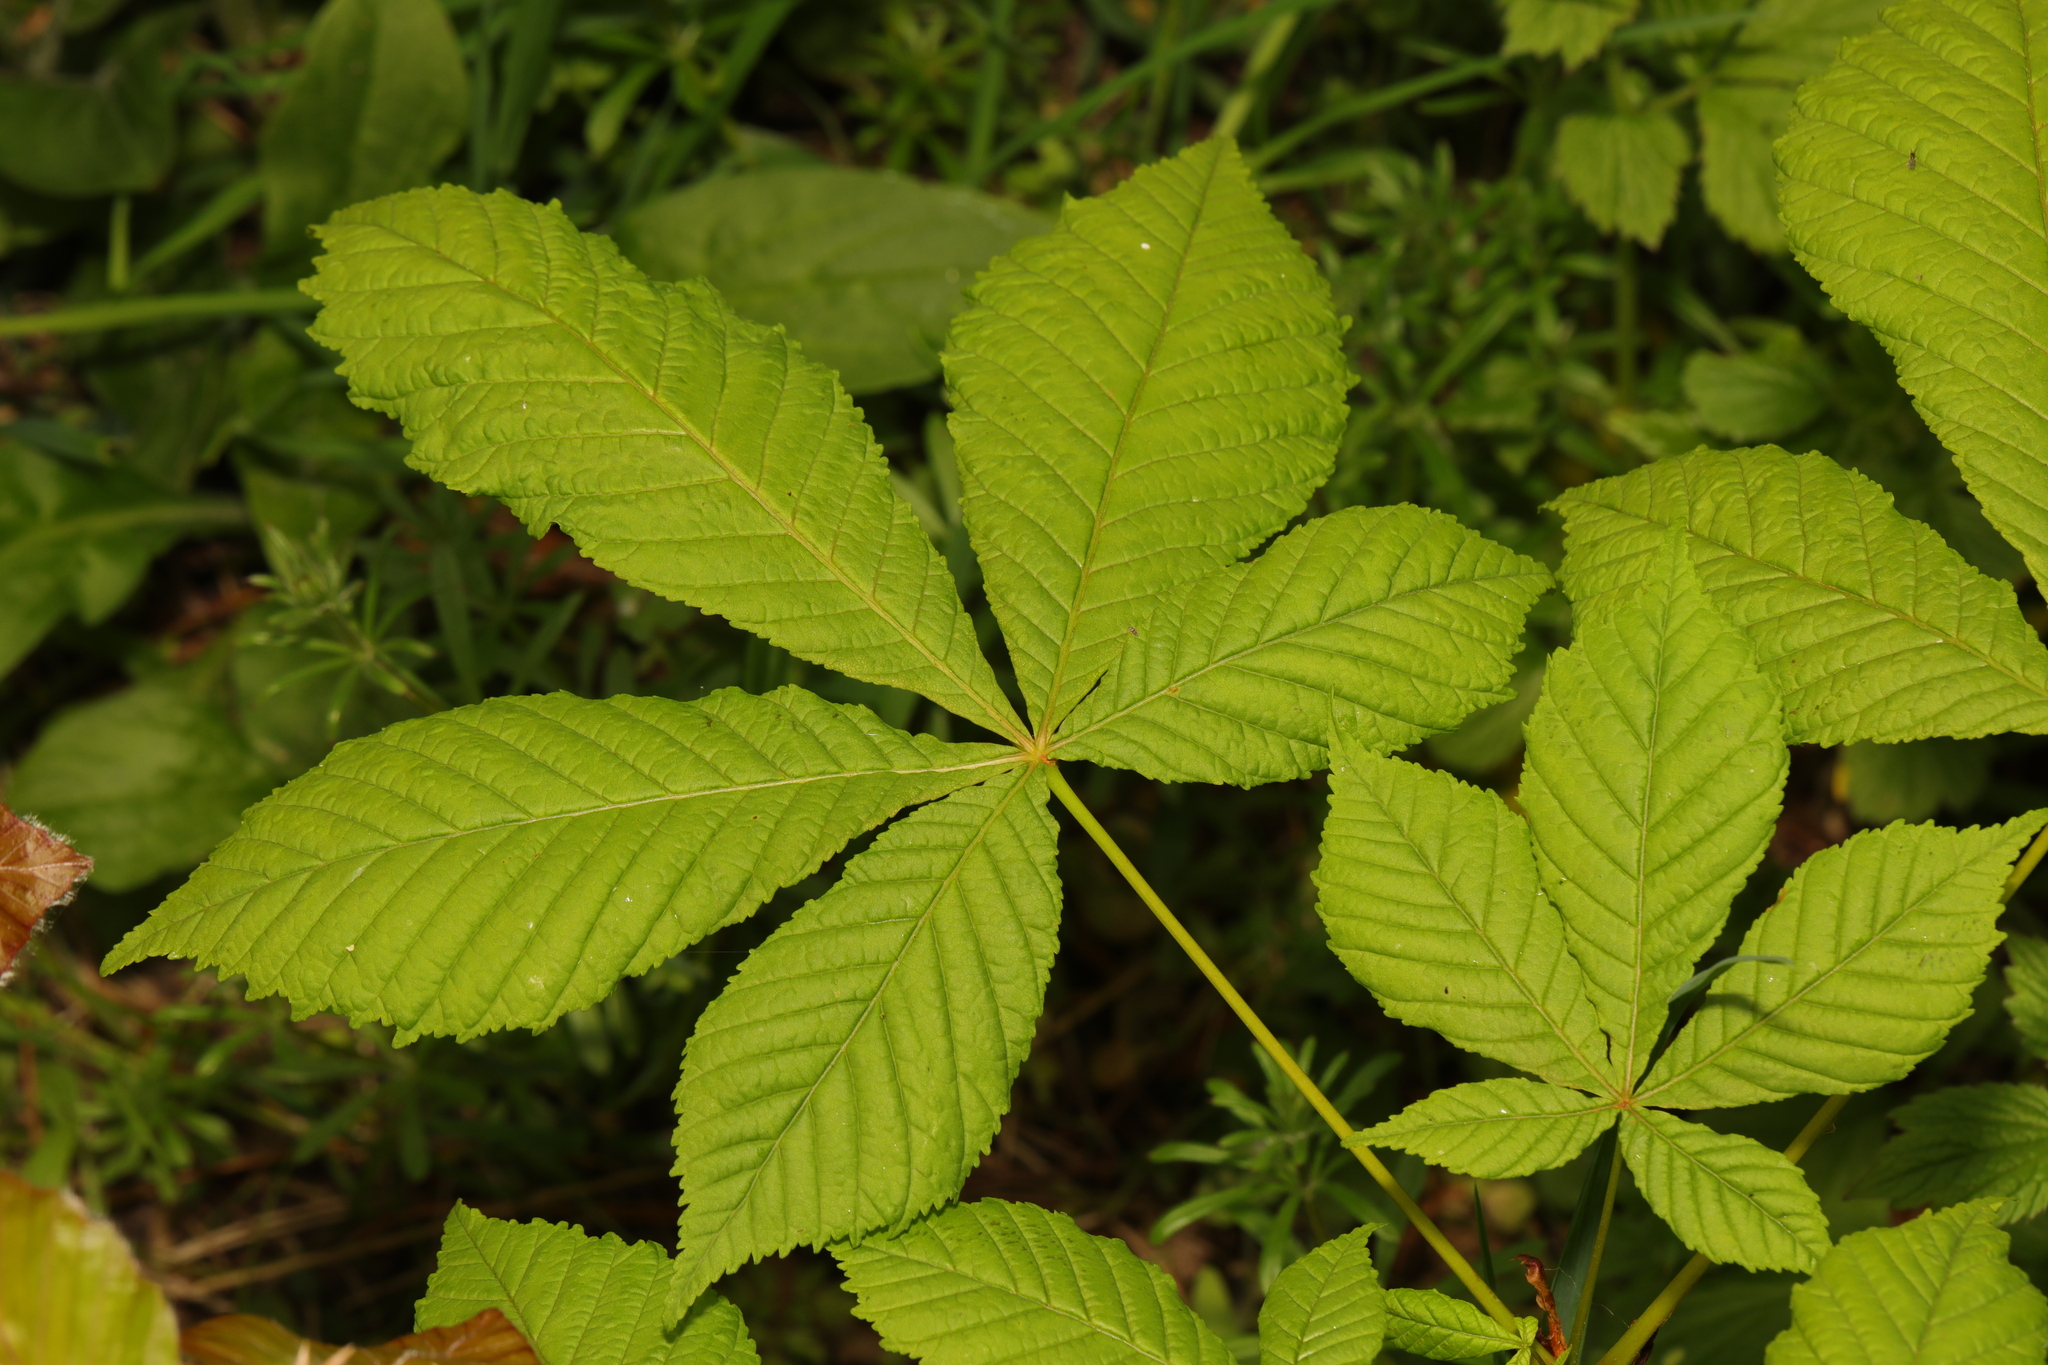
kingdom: Plantae
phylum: Tracheophyta
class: Magnoliopsida
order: Sapindales
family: Sapindaceae
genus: Aesculus
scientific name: Aesculus hippocastanum
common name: Horse-chestnut
